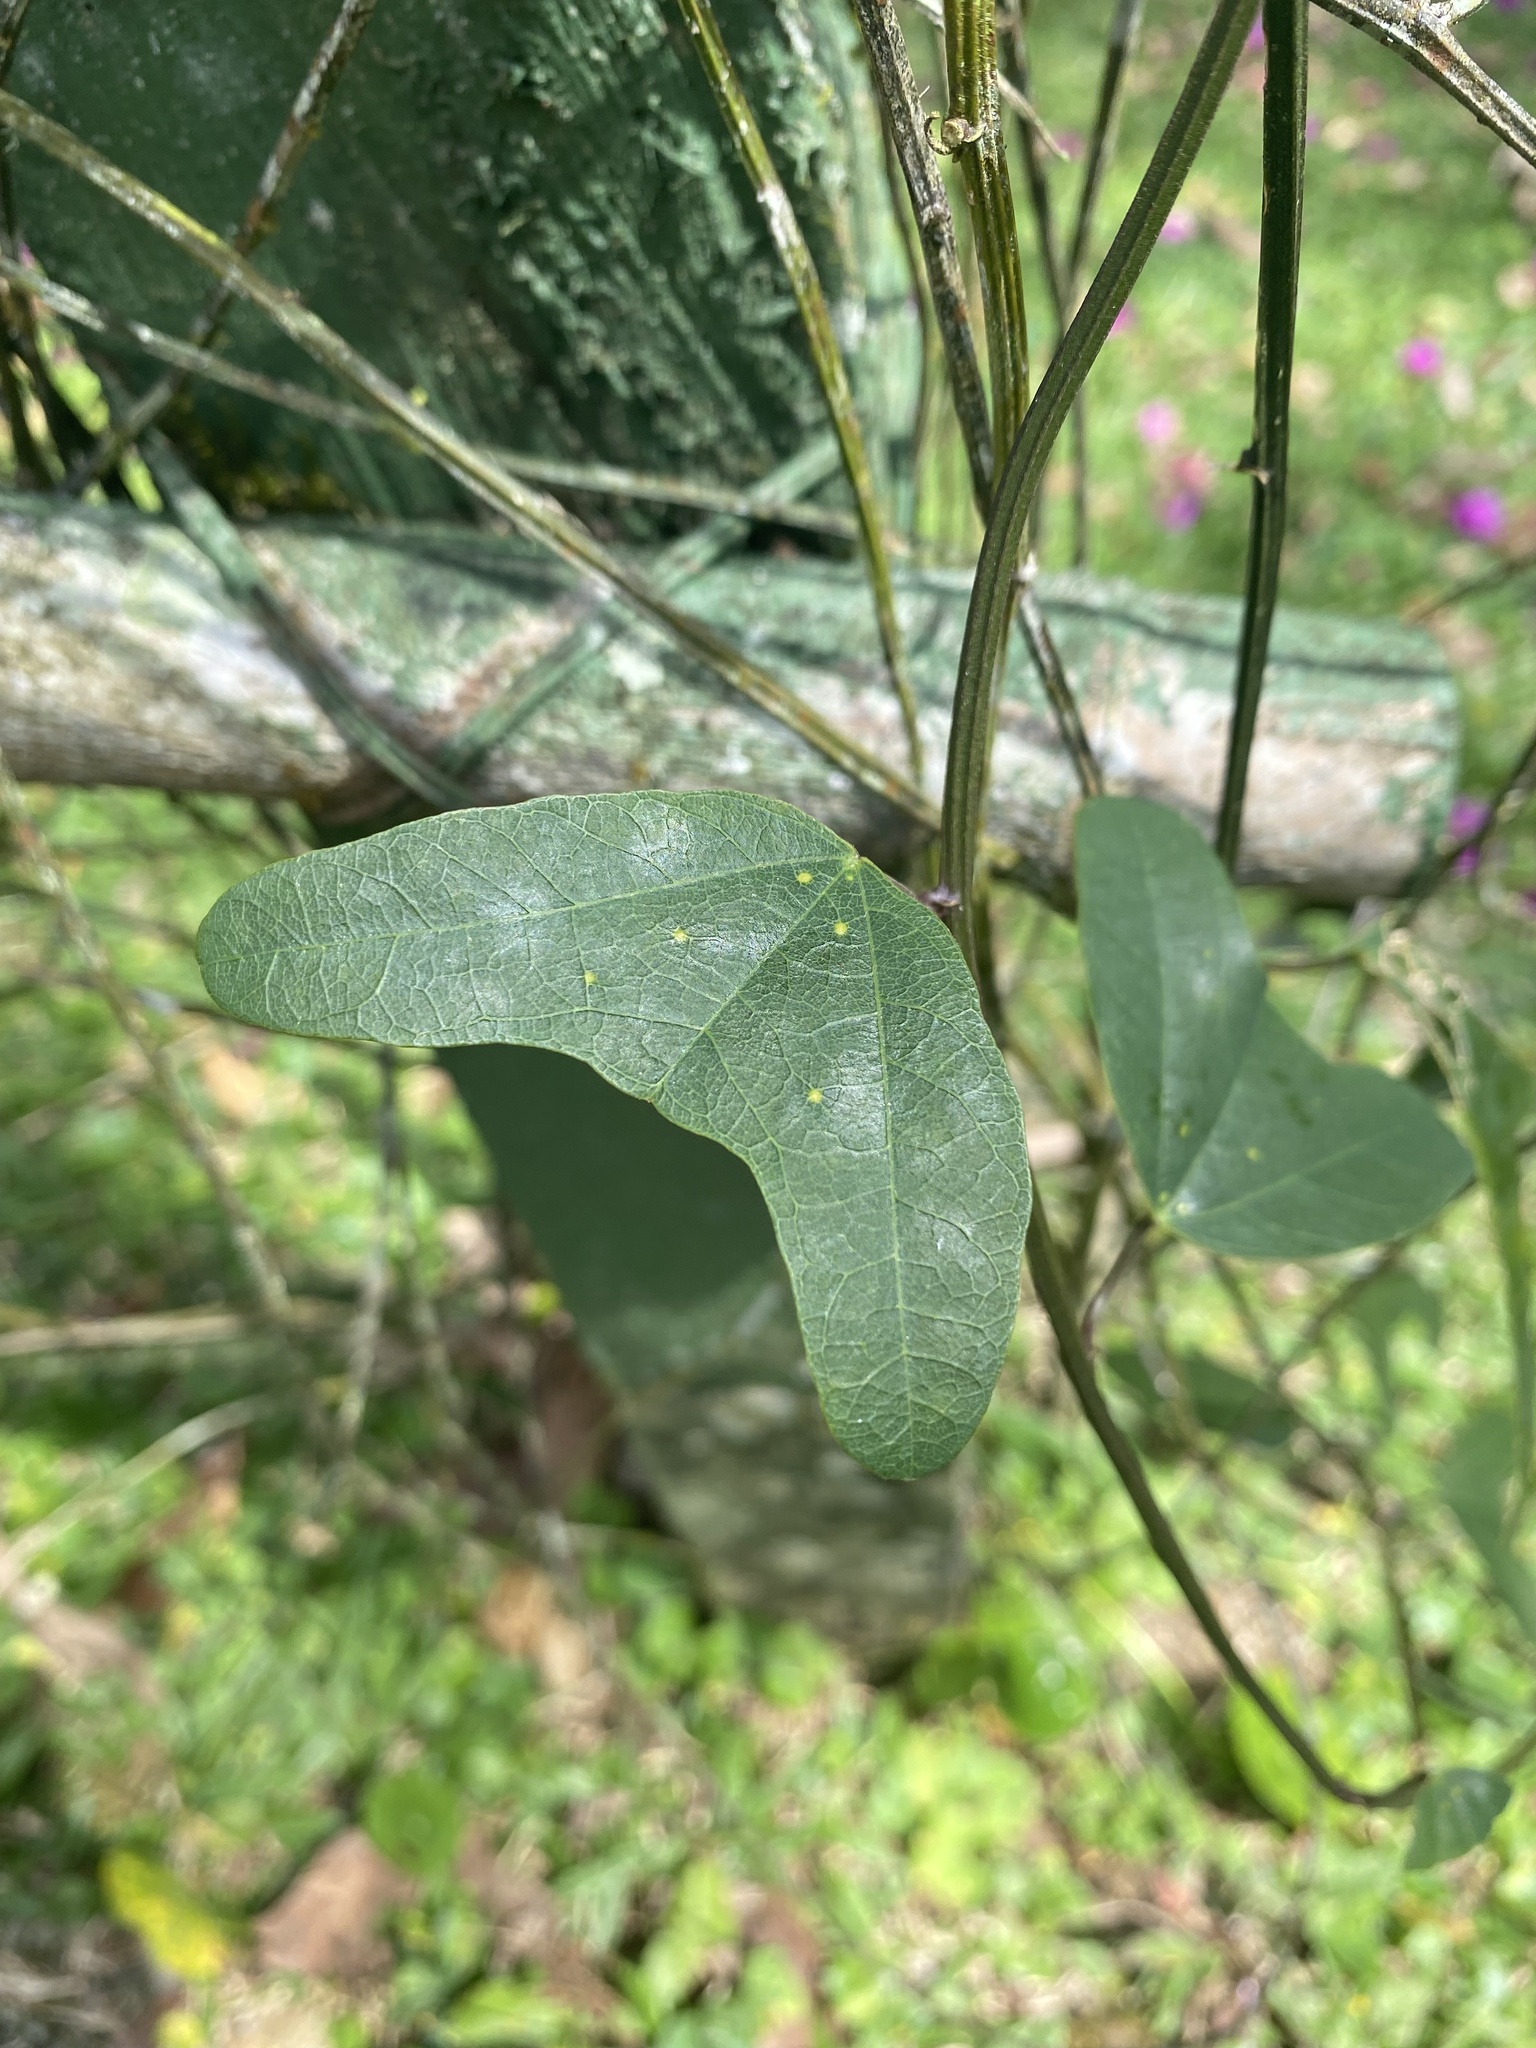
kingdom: Plantae
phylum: Tracheophyta
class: Magnoliopsida
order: Malpighiales
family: Passifloraceae
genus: Passiflora
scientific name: Passiflora biflora
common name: Twoflower passionflower
